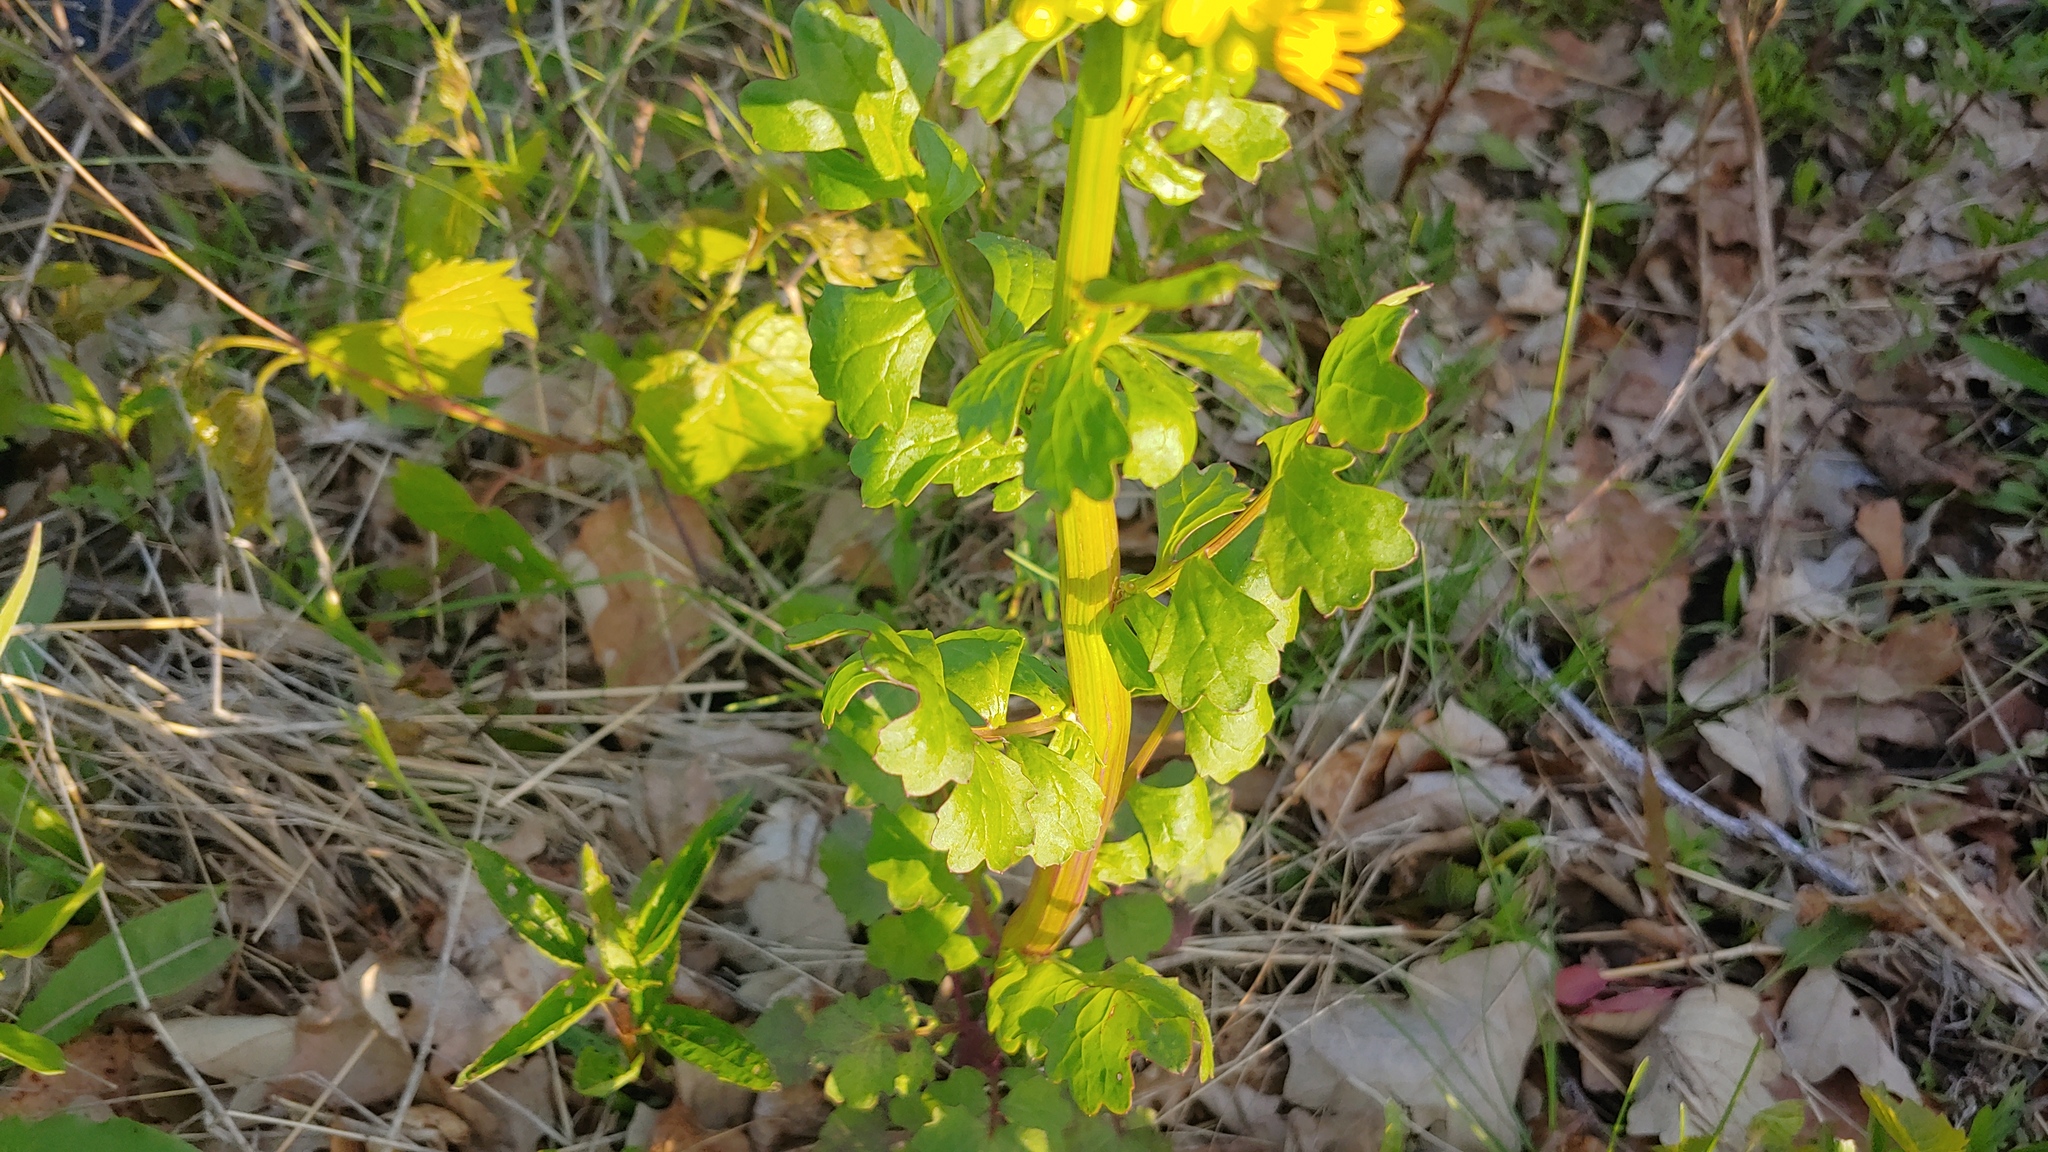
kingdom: Plantae
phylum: Tracheophyta
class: Magnoliopsida
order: Asterales
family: Asteraceae
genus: Packera
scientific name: Packera glabella
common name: Butterweed
